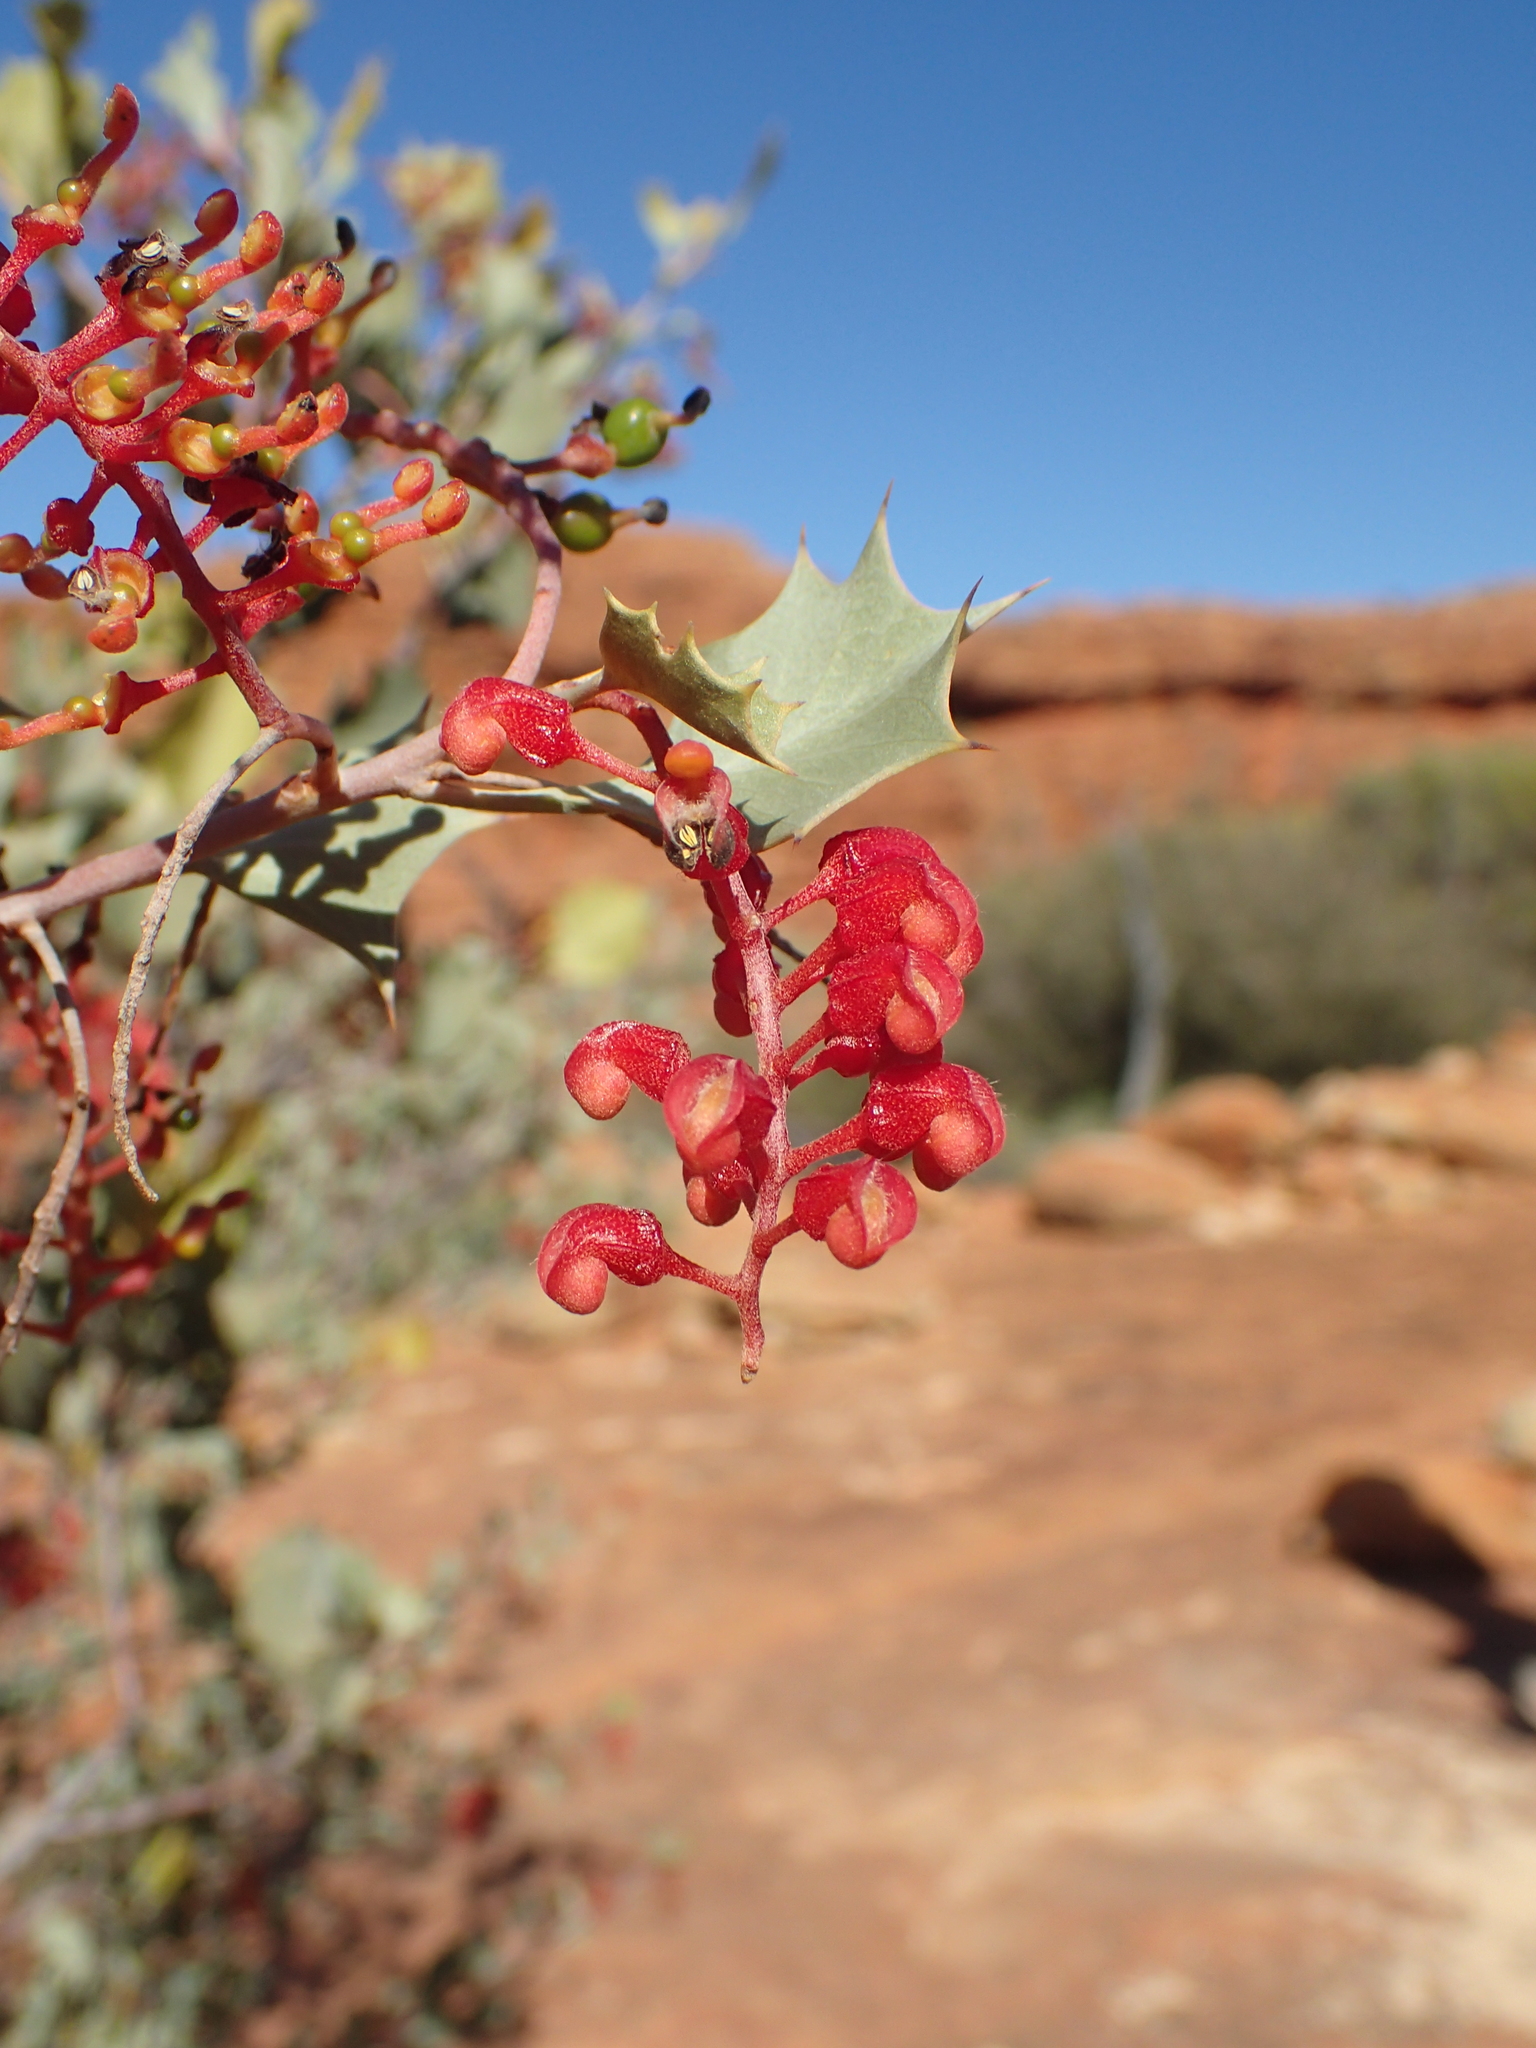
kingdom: Plantae
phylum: Tracheophyta
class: Magnoliopsida
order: Proteales
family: Proteaceae
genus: Grevillea
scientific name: Grevillea wickhamii
